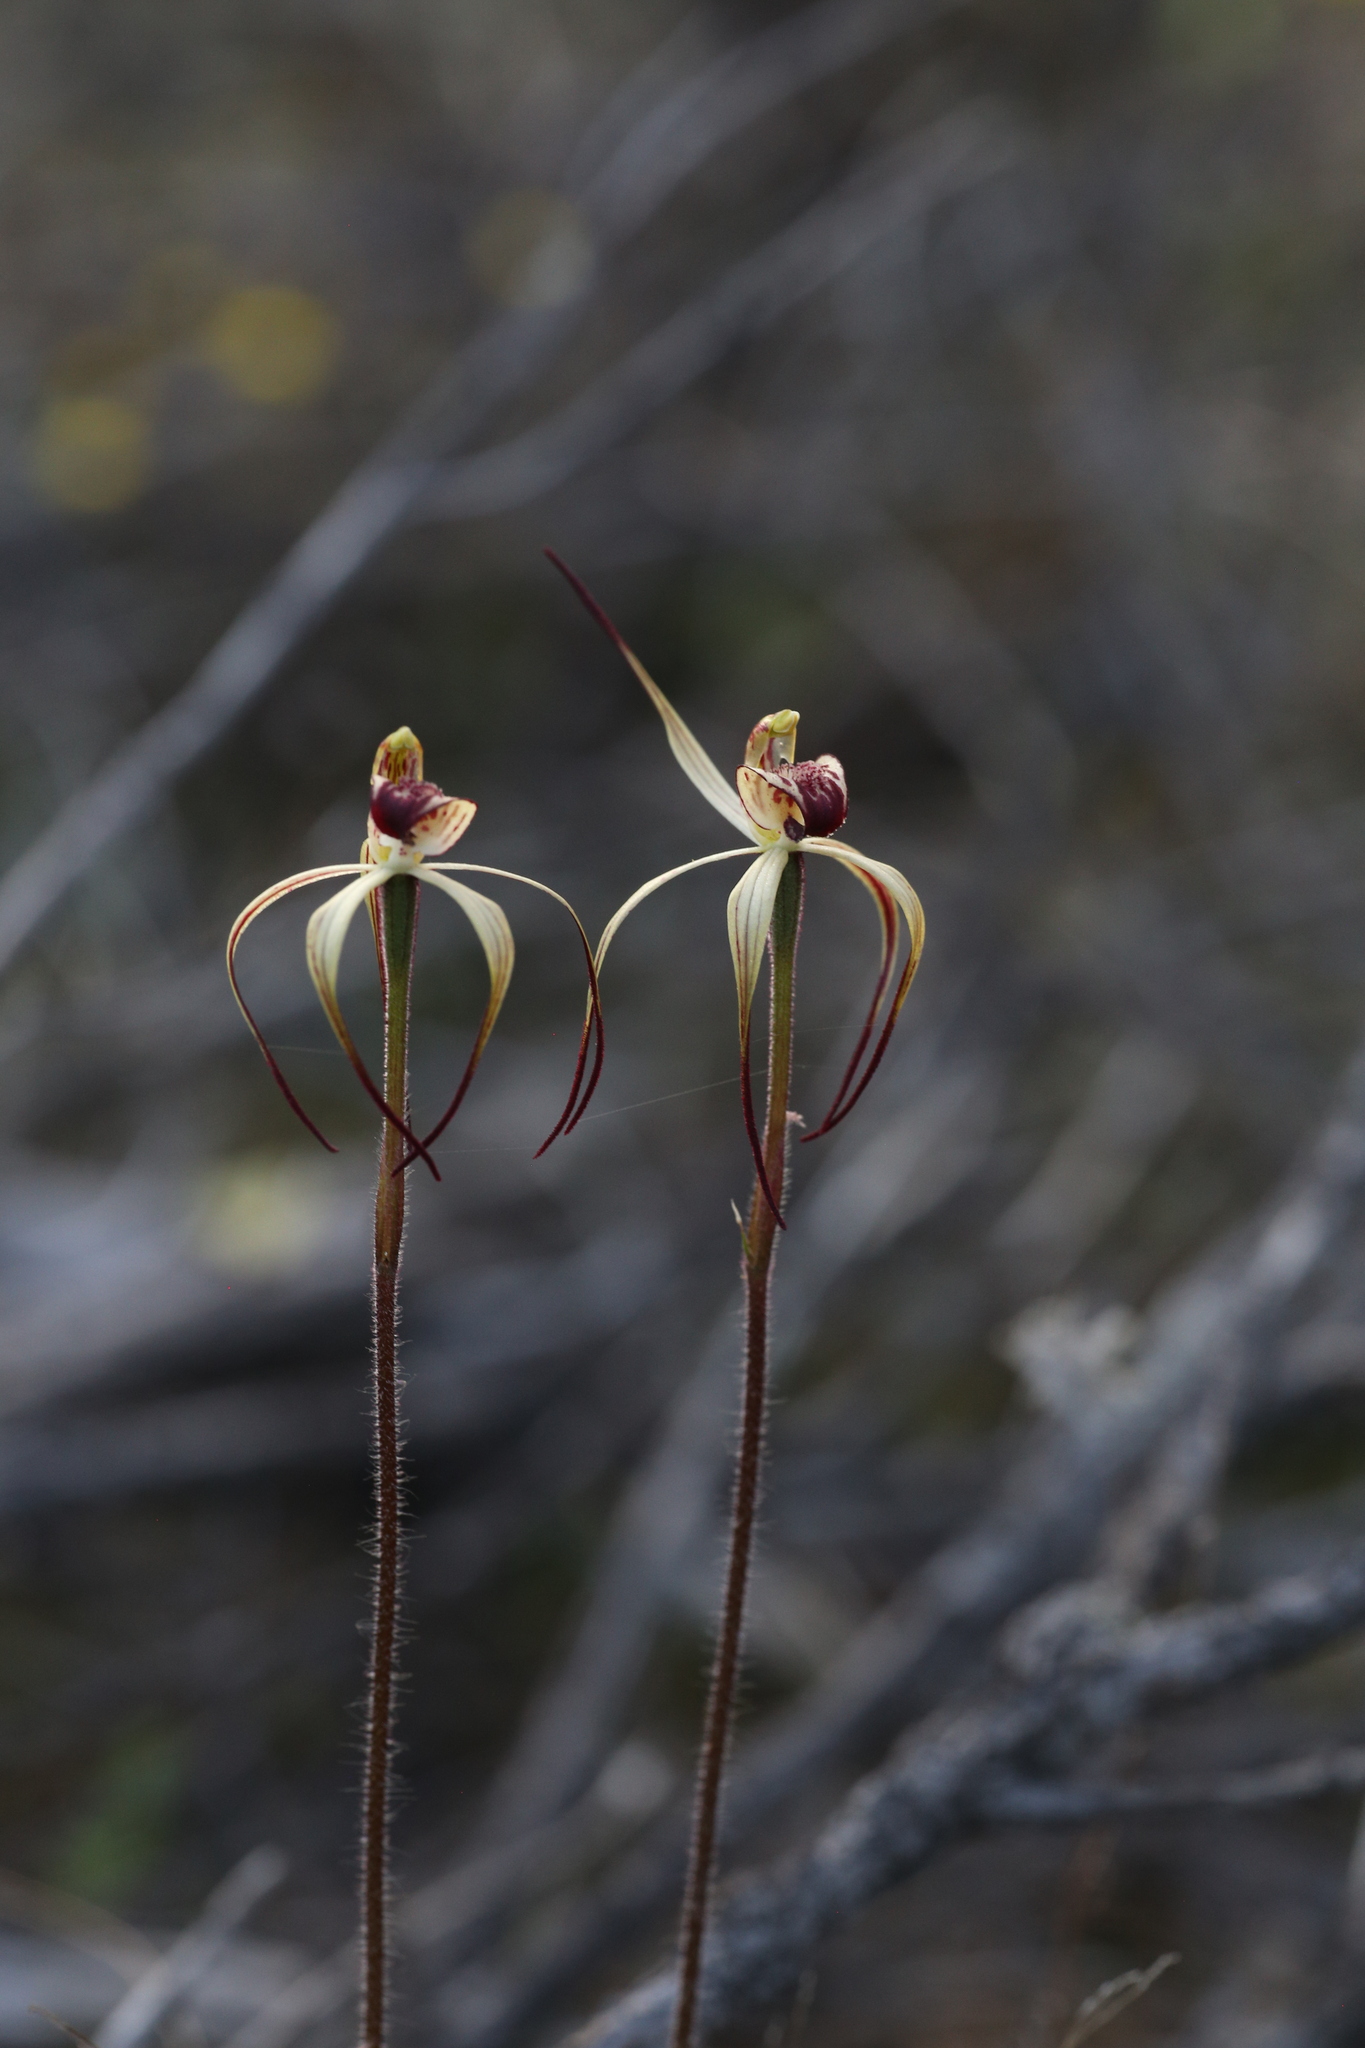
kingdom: Plantae
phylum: Tracheophyta
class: Liliopsida
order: Asparagales
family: Orchidaceae
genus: Caladenia
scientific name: Caladenia radialis
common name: Drooping spider orchid
